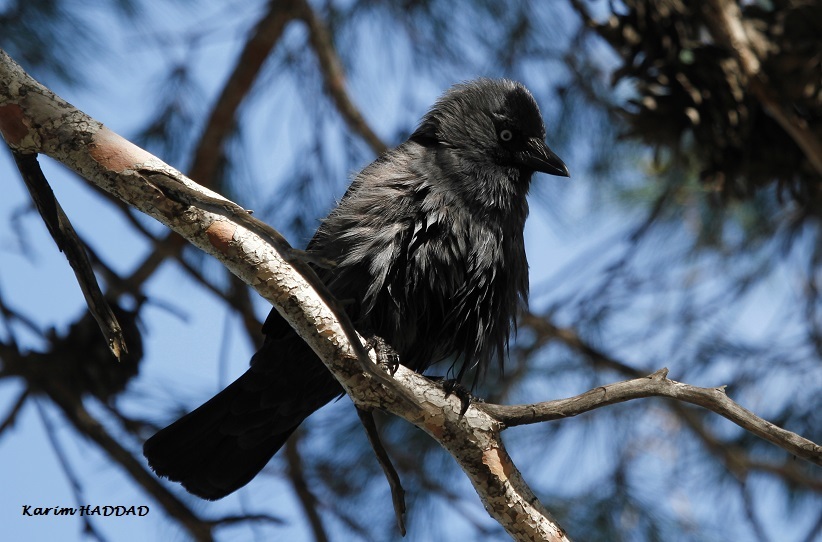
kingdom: Animalia
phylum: Chordata
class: Aves
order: Passeriformes
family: Corvidae
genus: Coloeus
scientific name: Coloeus monedula
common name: Western jackdaw
